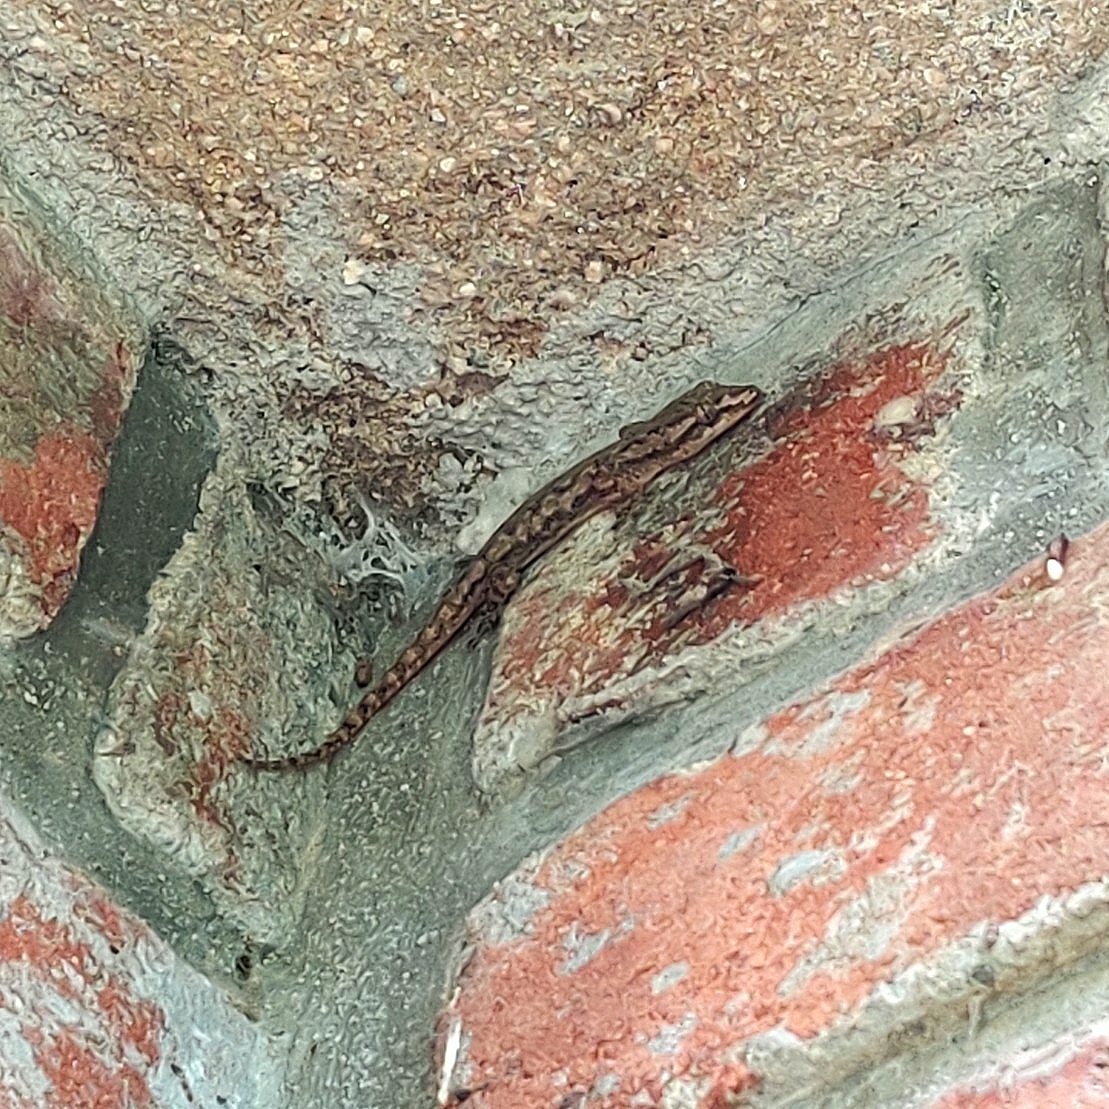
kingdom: Animalia
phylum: Chordata
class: Squamata
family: Gekkonidae
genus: Hemidactylus
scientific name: Hemidactylus frenatus
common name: Common house gecko
